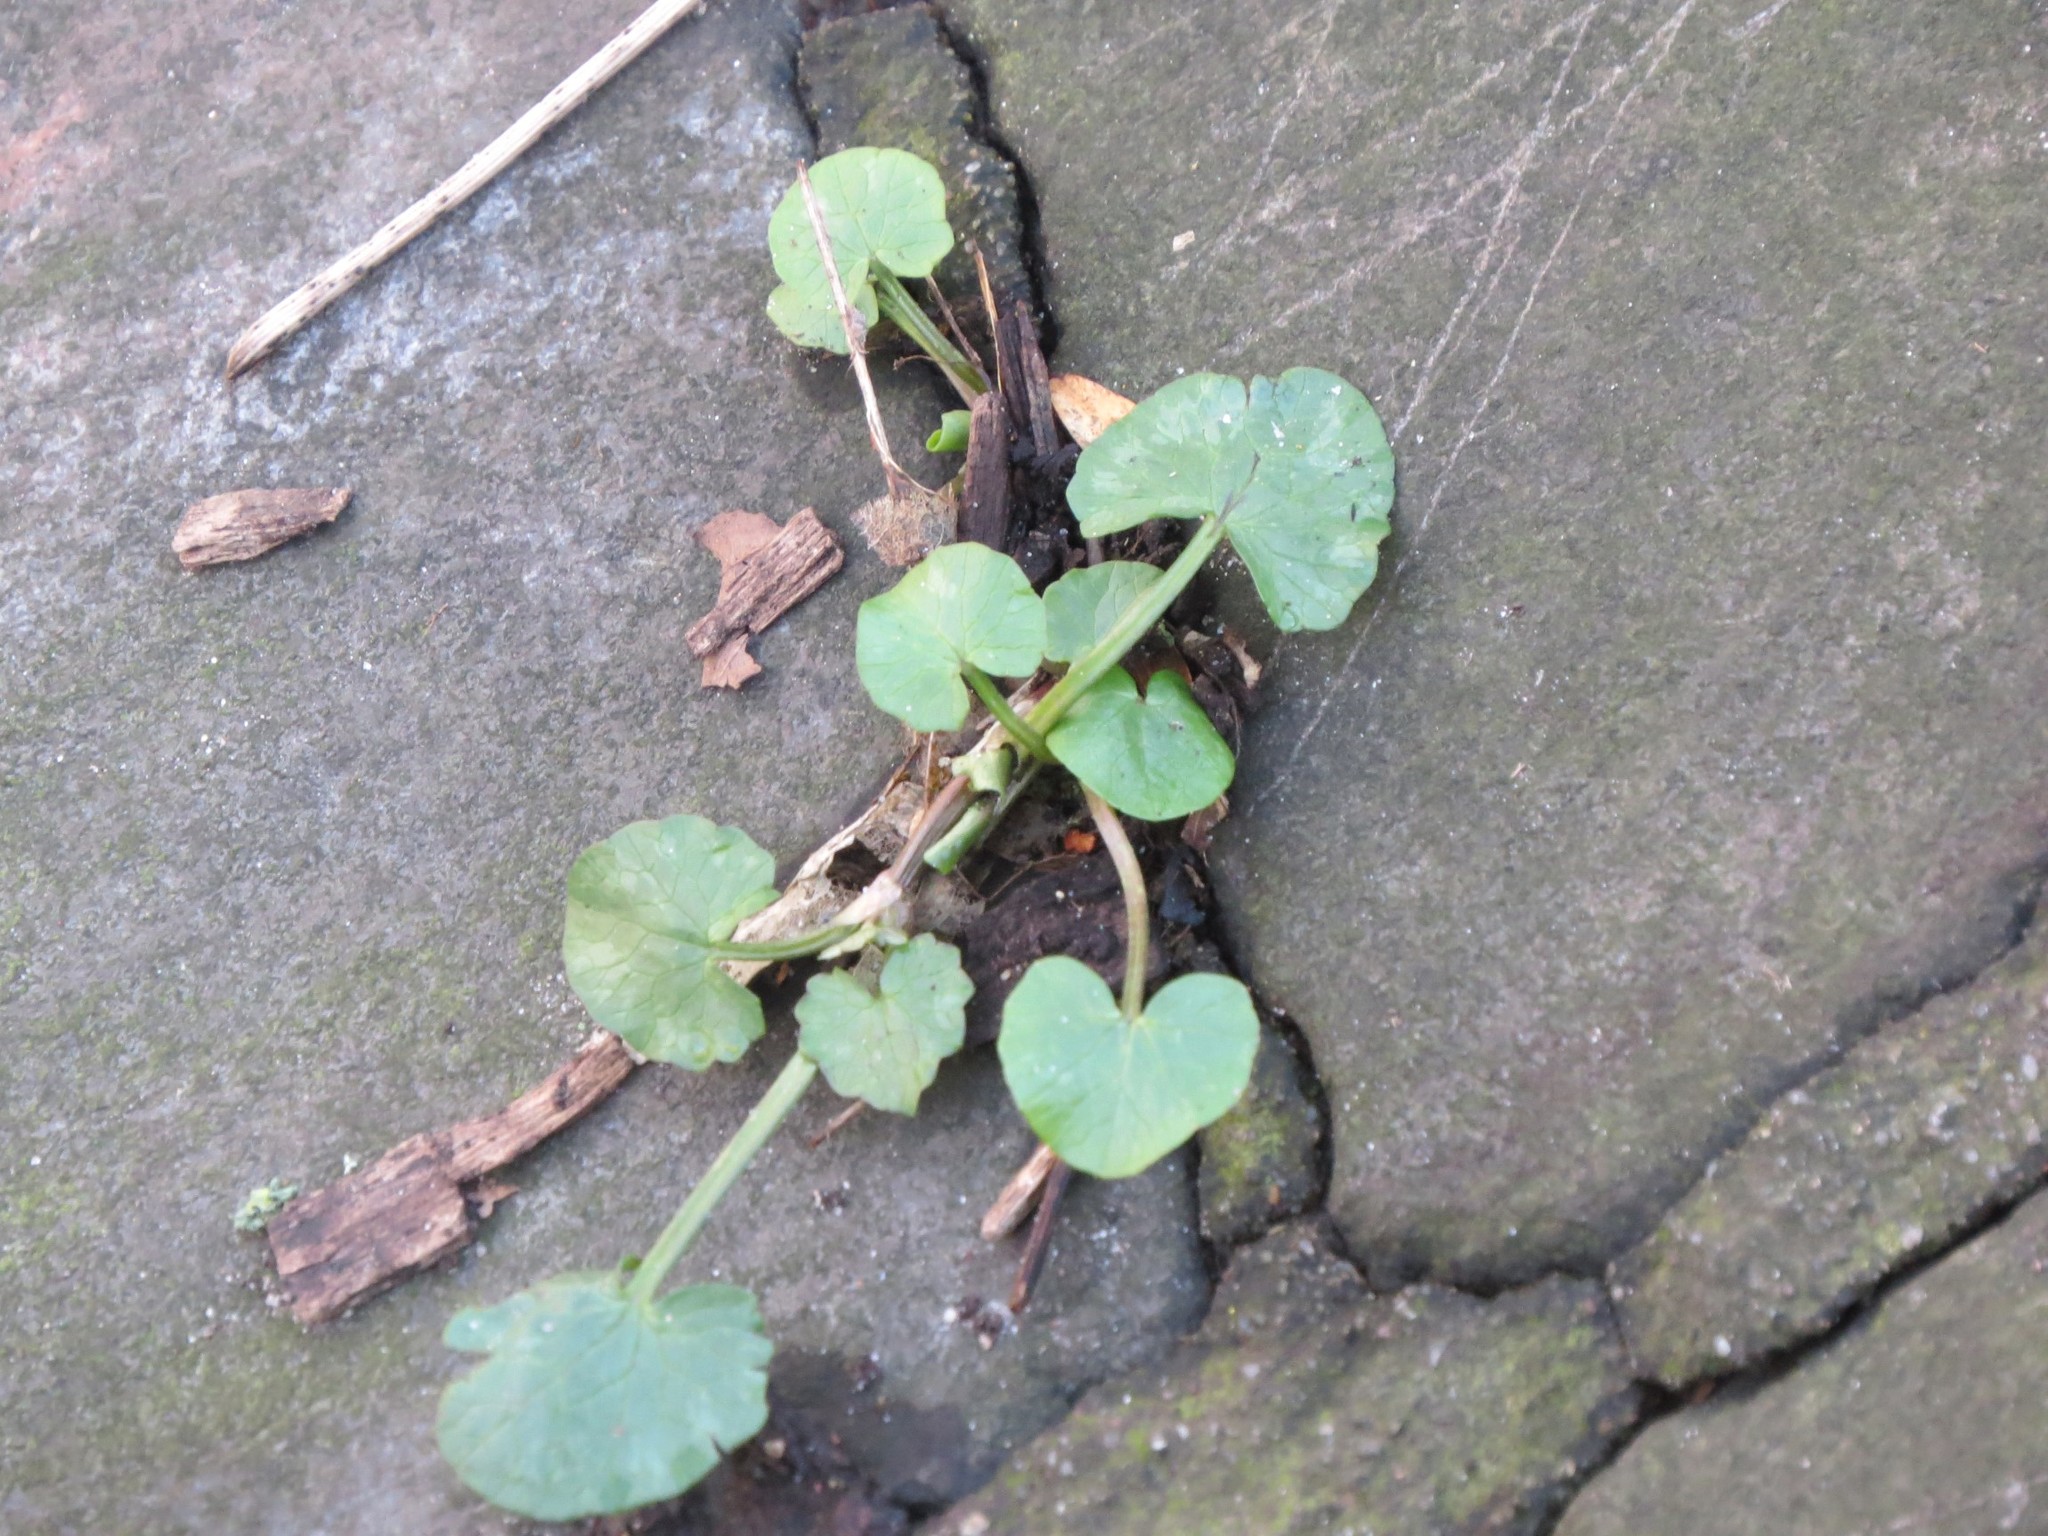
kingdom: Plantae
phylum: Tracheophyta
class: Magnoliopsida
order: Ranunculales
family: Ranunculaceae
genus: Ficaria
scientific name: Ficaria verna
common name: Lesser celandine
